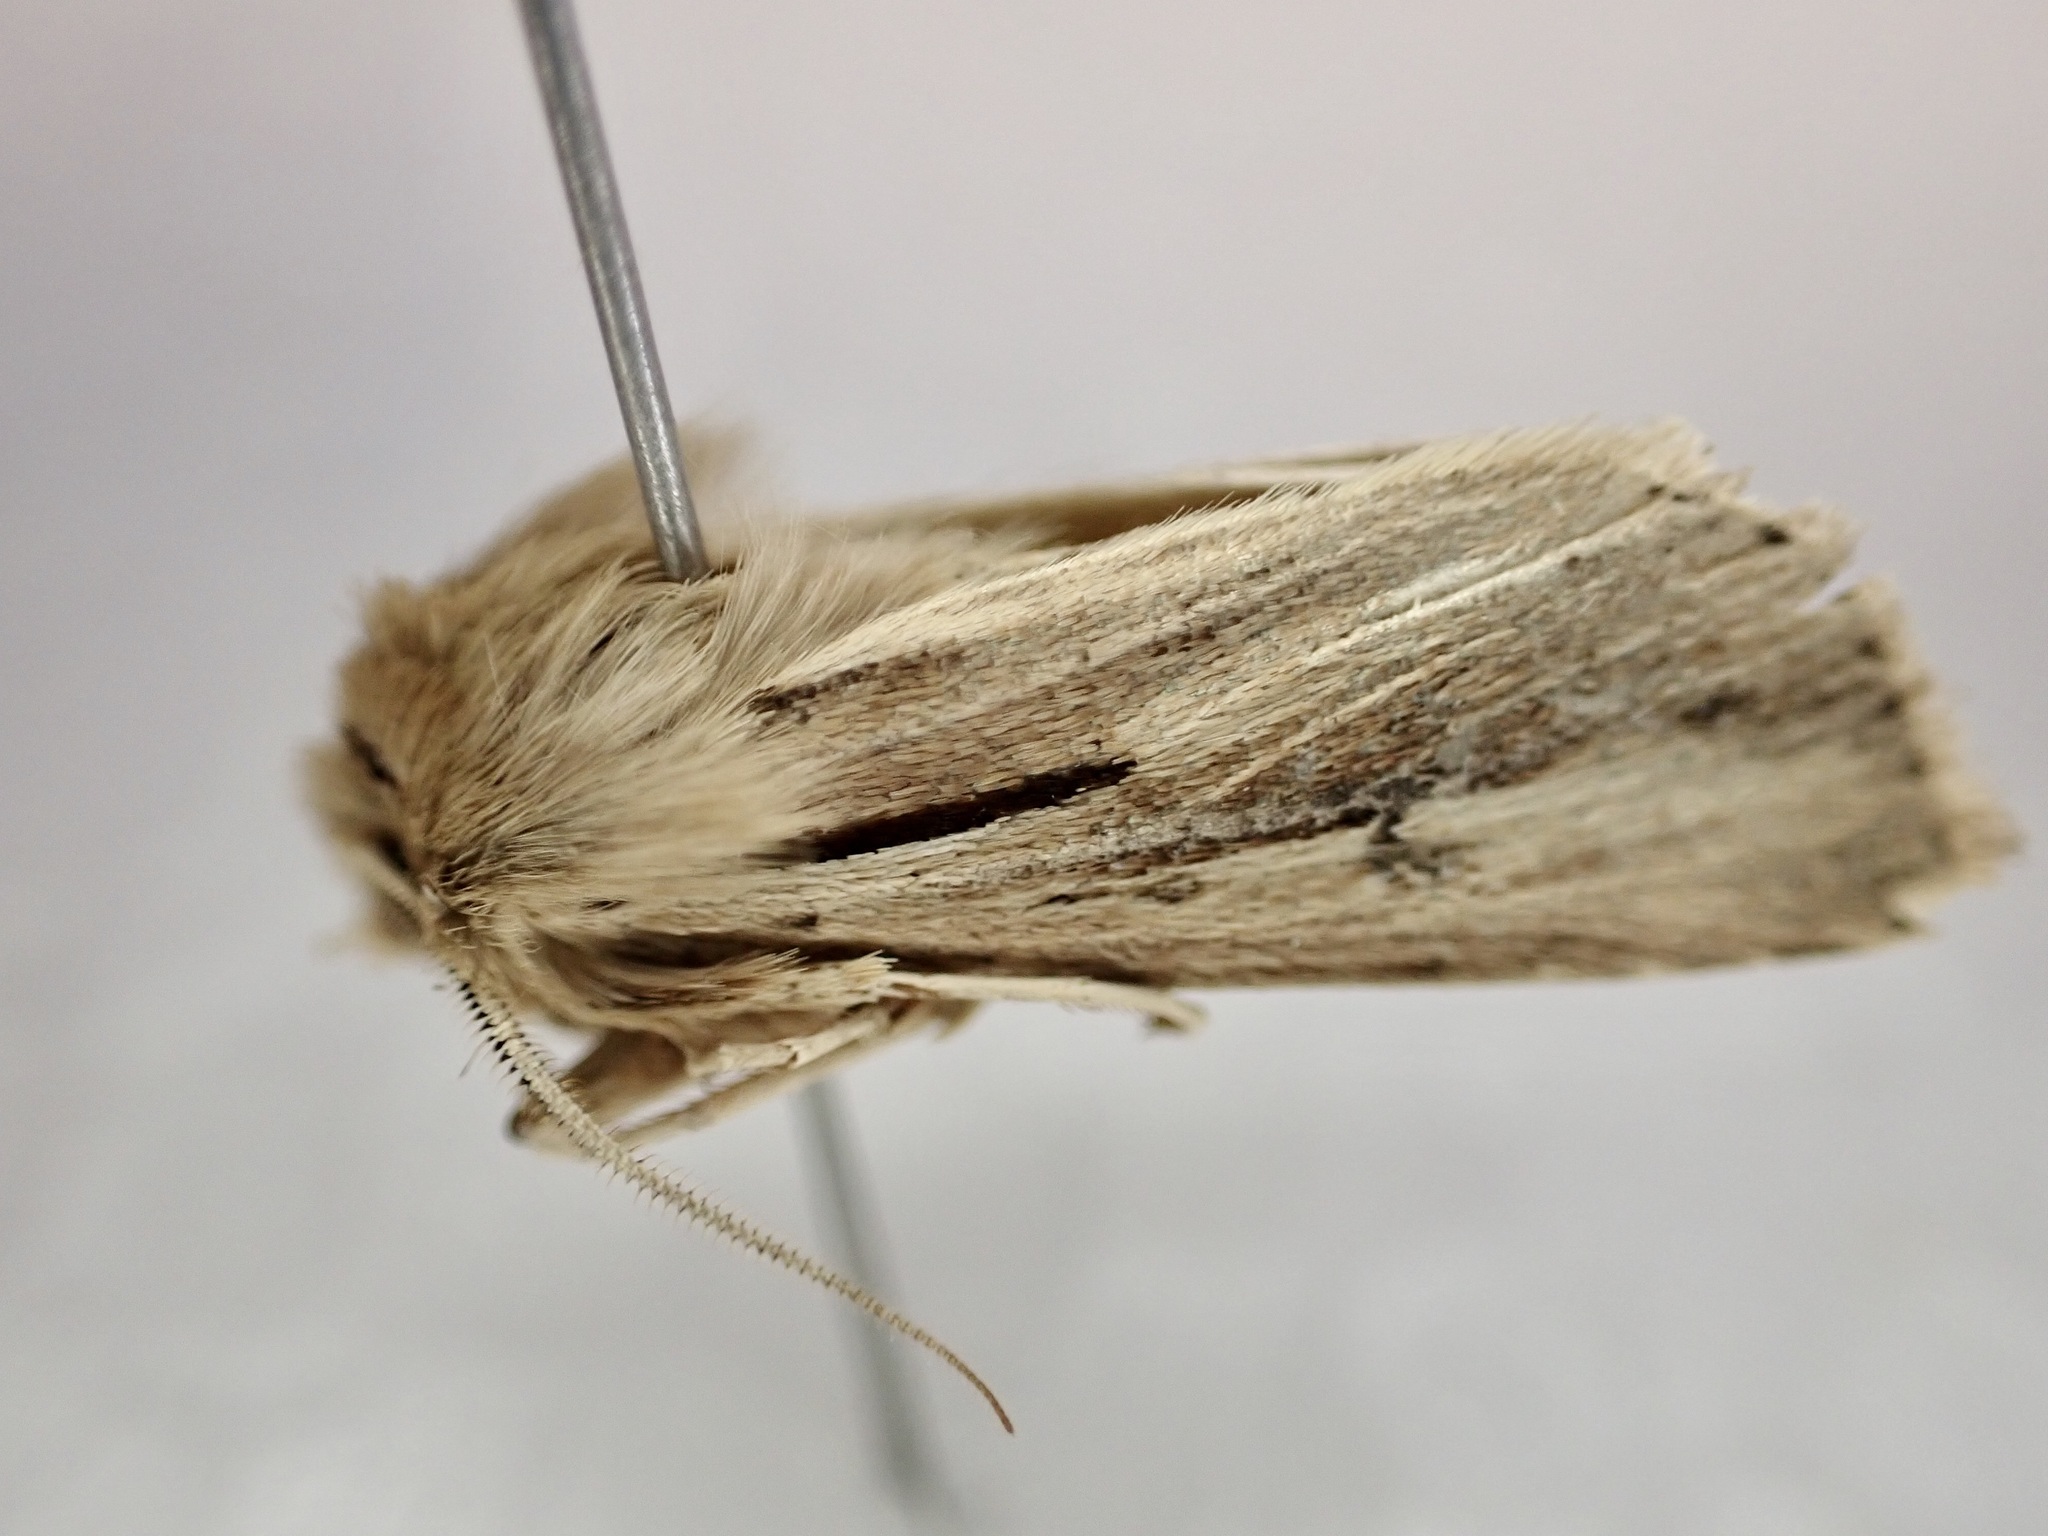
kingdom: Animalia
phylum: Arthropoda
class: Insecta
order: Lepidoptera
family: Noctuidae
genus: Ichneutica
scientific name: Ichneutica propria
